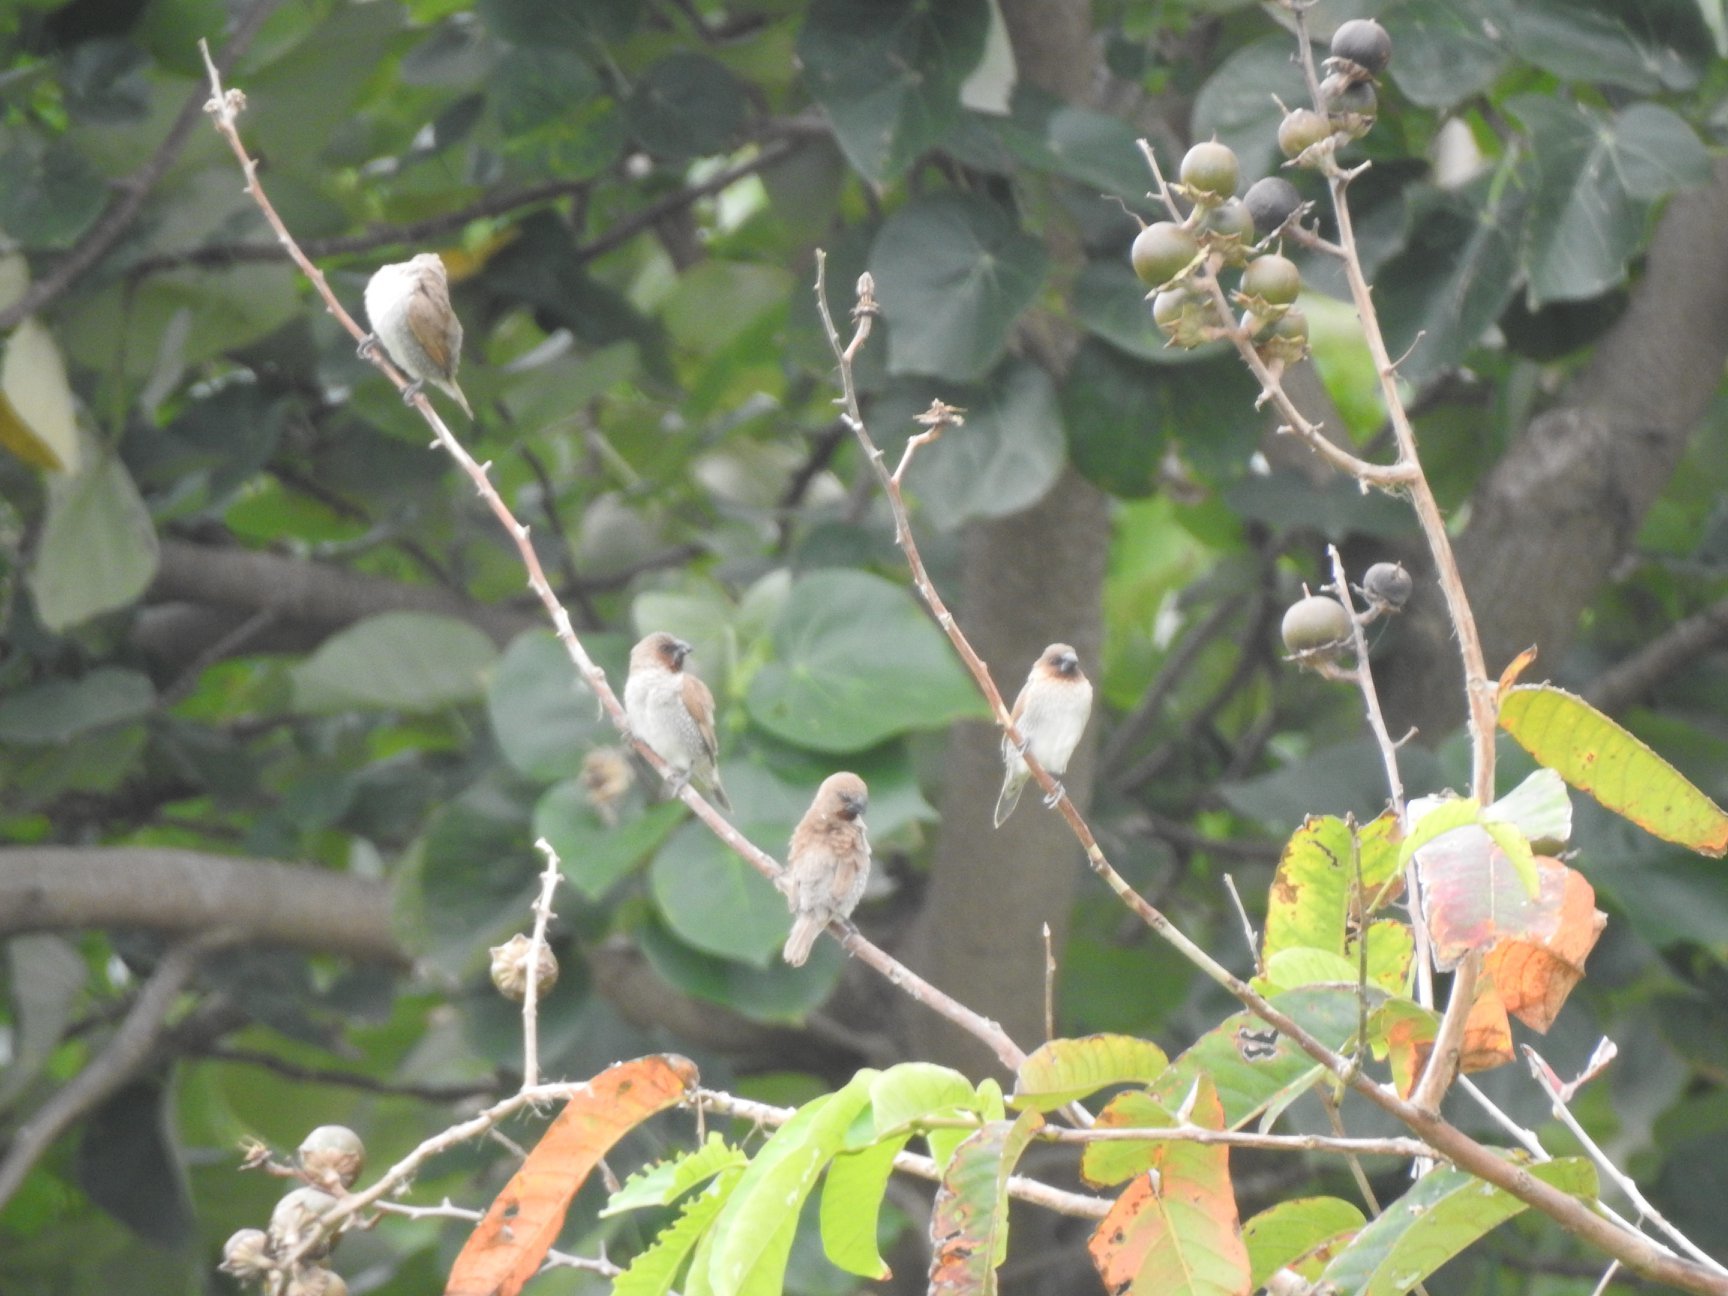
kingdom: Animalia
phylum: Chordata
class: Aves
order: Passeriformes
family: Estrildidae
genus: Lonchura
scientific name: Lonchura punctulata
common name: Scaly-breasted munia
